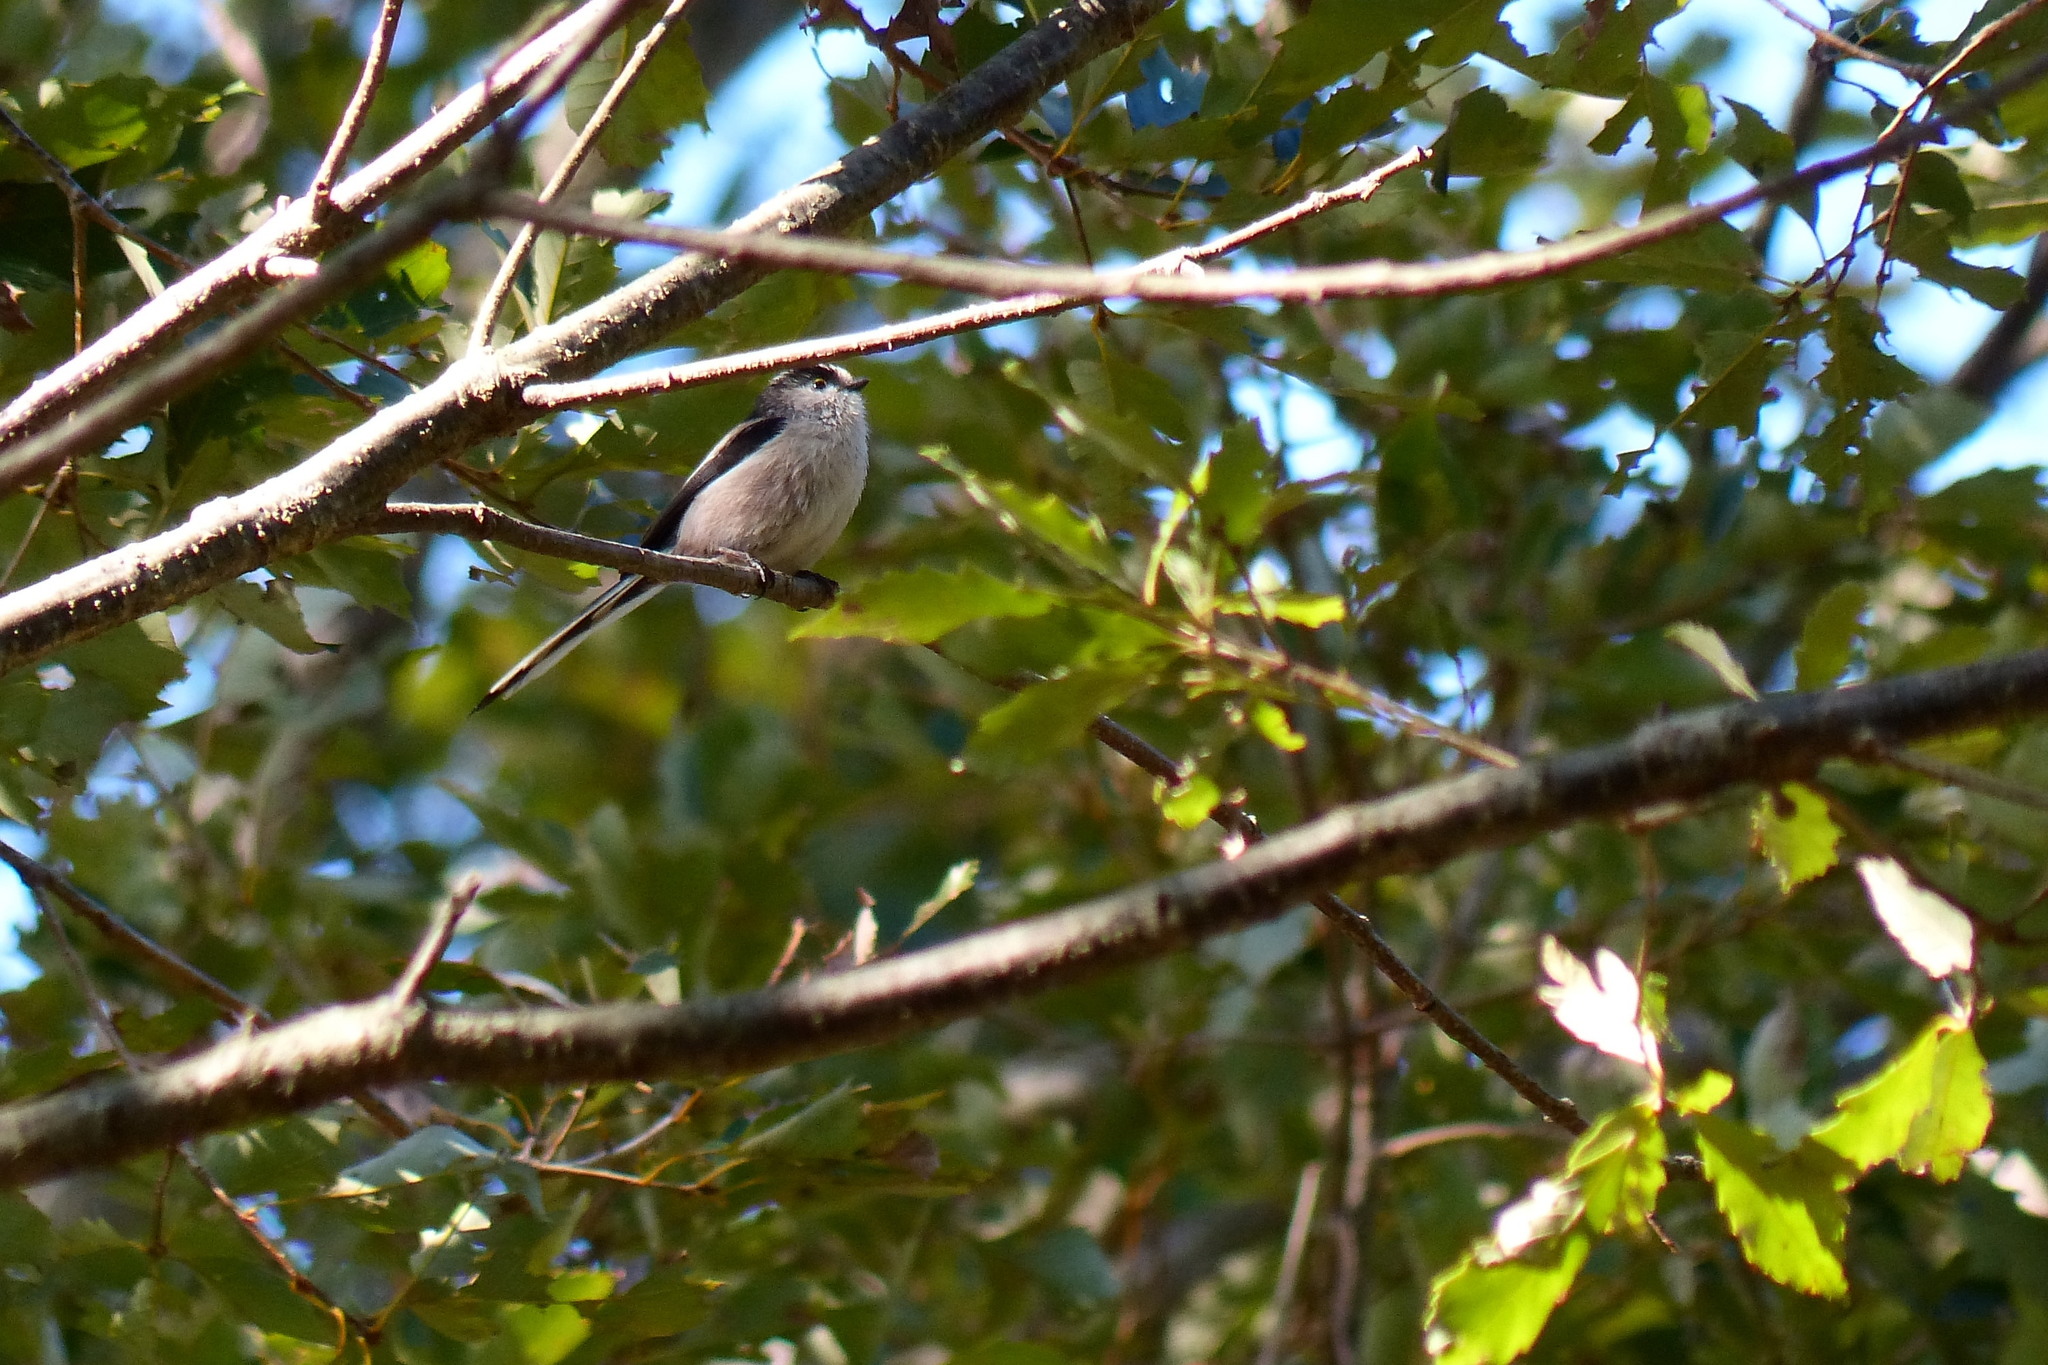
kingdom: Animalia
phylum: Chordata
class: Aves
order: Passeriformes
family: Aegithalidae
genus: Aegithalos
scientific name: Aegithalos caudatus
